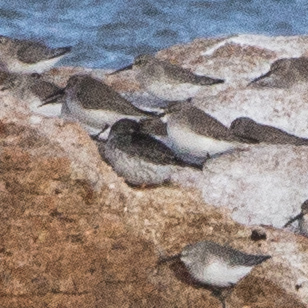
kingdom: Animalia
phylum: Chordata
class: Aves
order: Charadriiformes
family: Scolopacidae
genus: Calidris
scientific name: Calidris maritima
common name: Purple sandpiper
